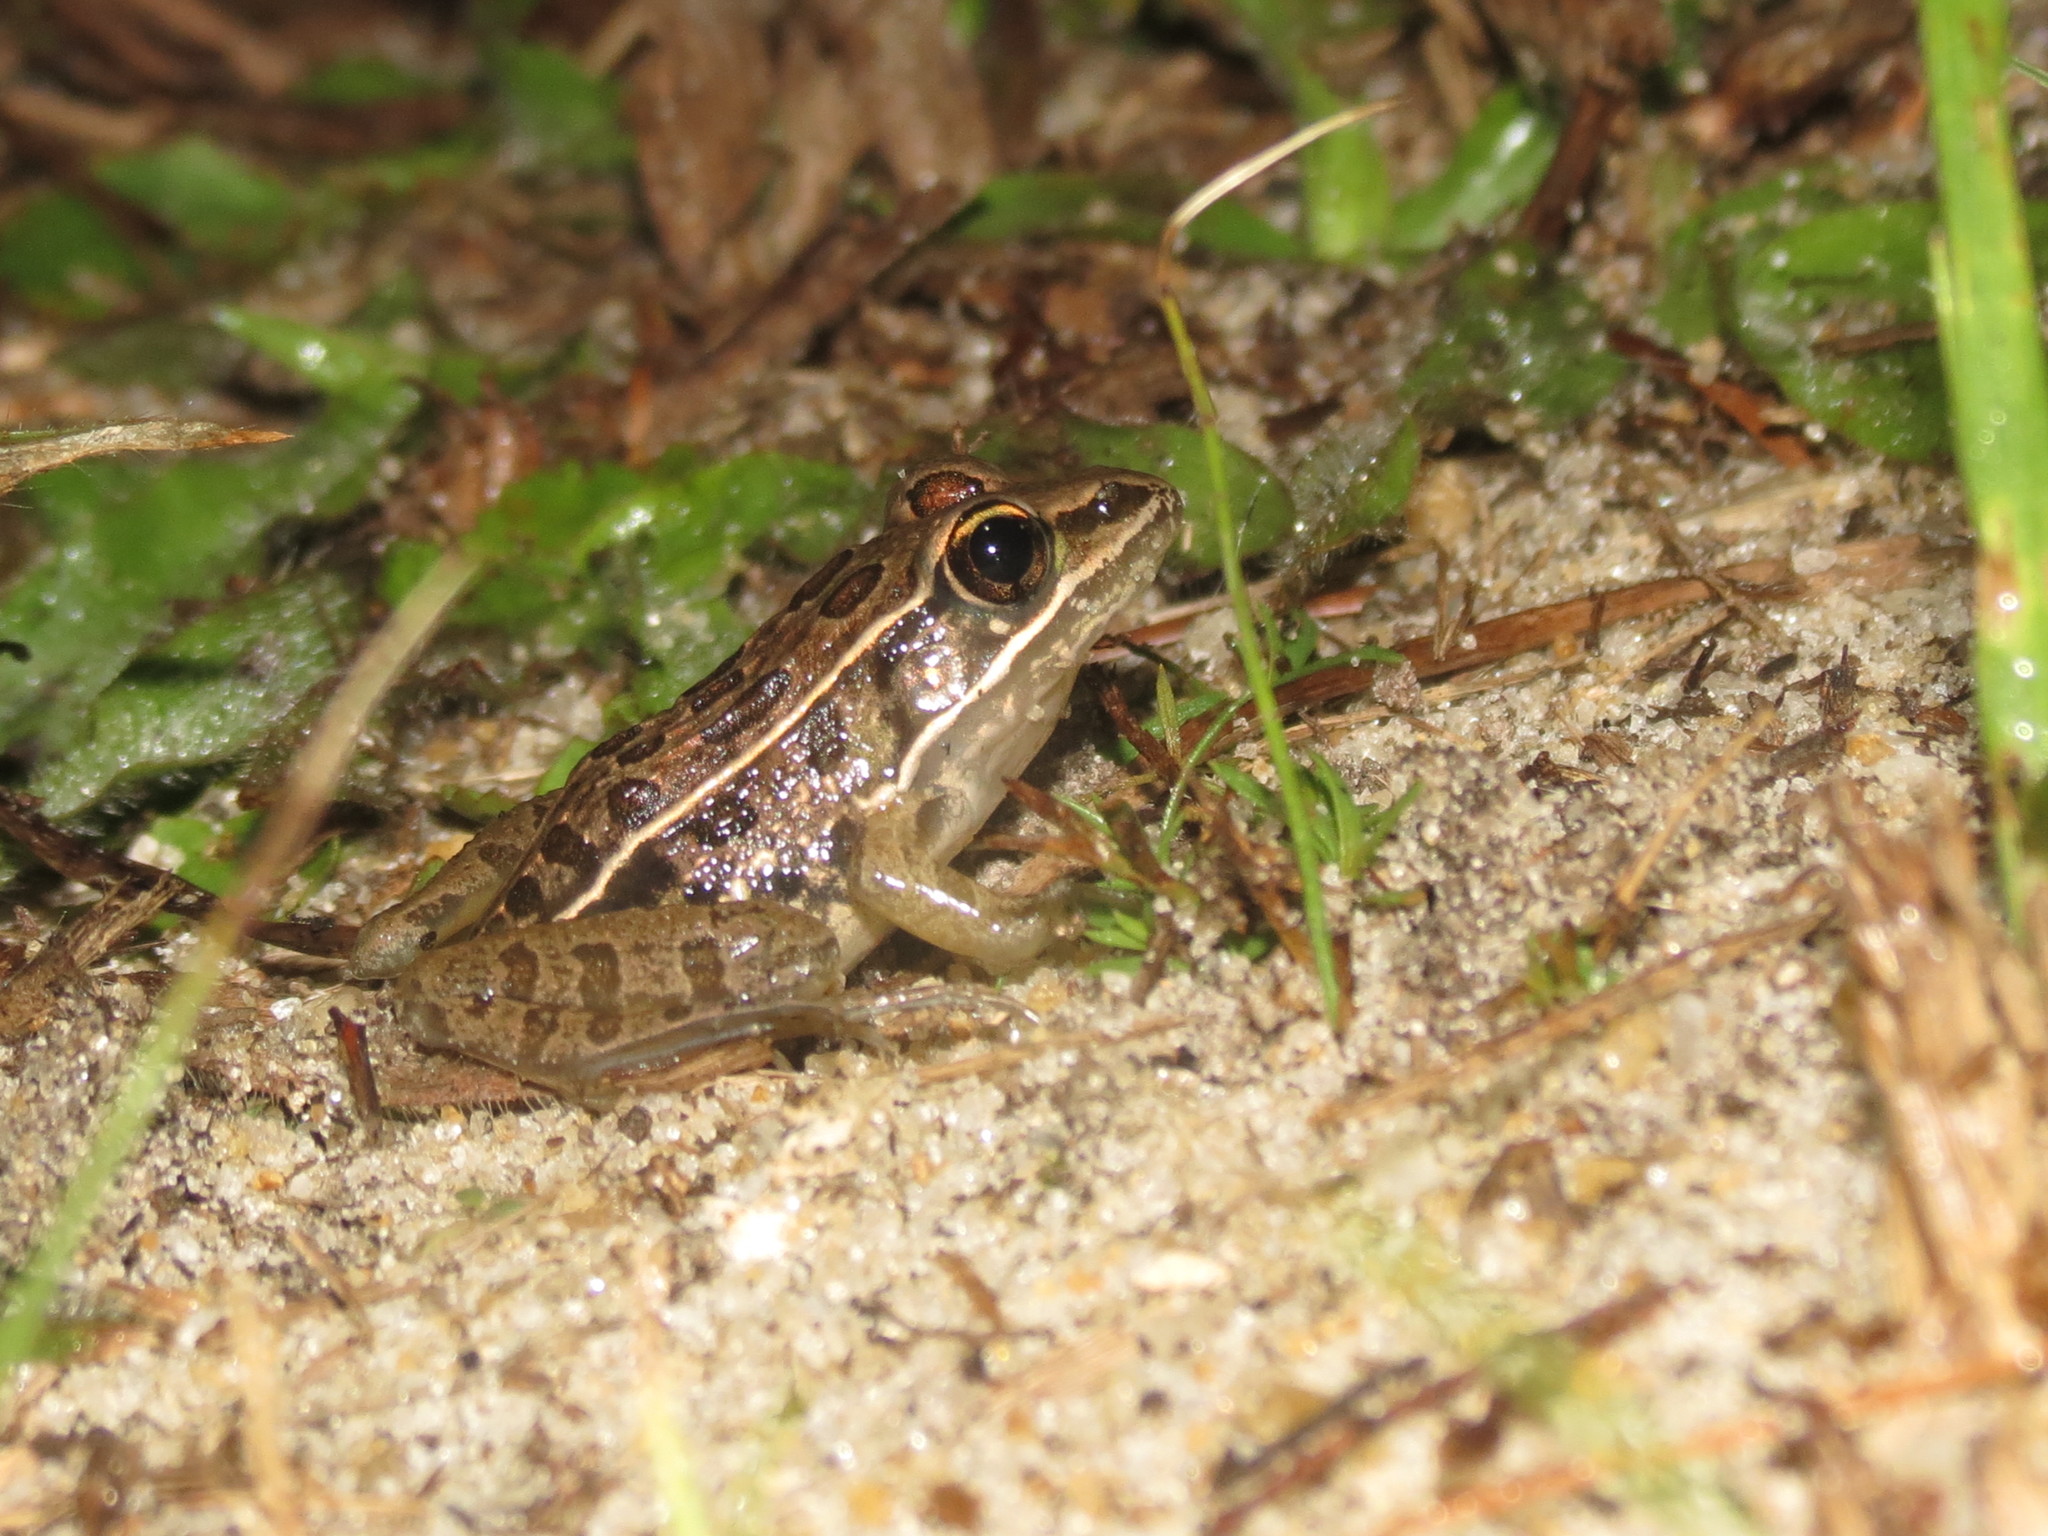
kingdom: Animalia
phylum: Chordata
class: Amphibia
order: Anura
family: Ranidae
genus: Lithobates
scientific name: Lithobates sphenocephalus
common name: Southern leopard frog
